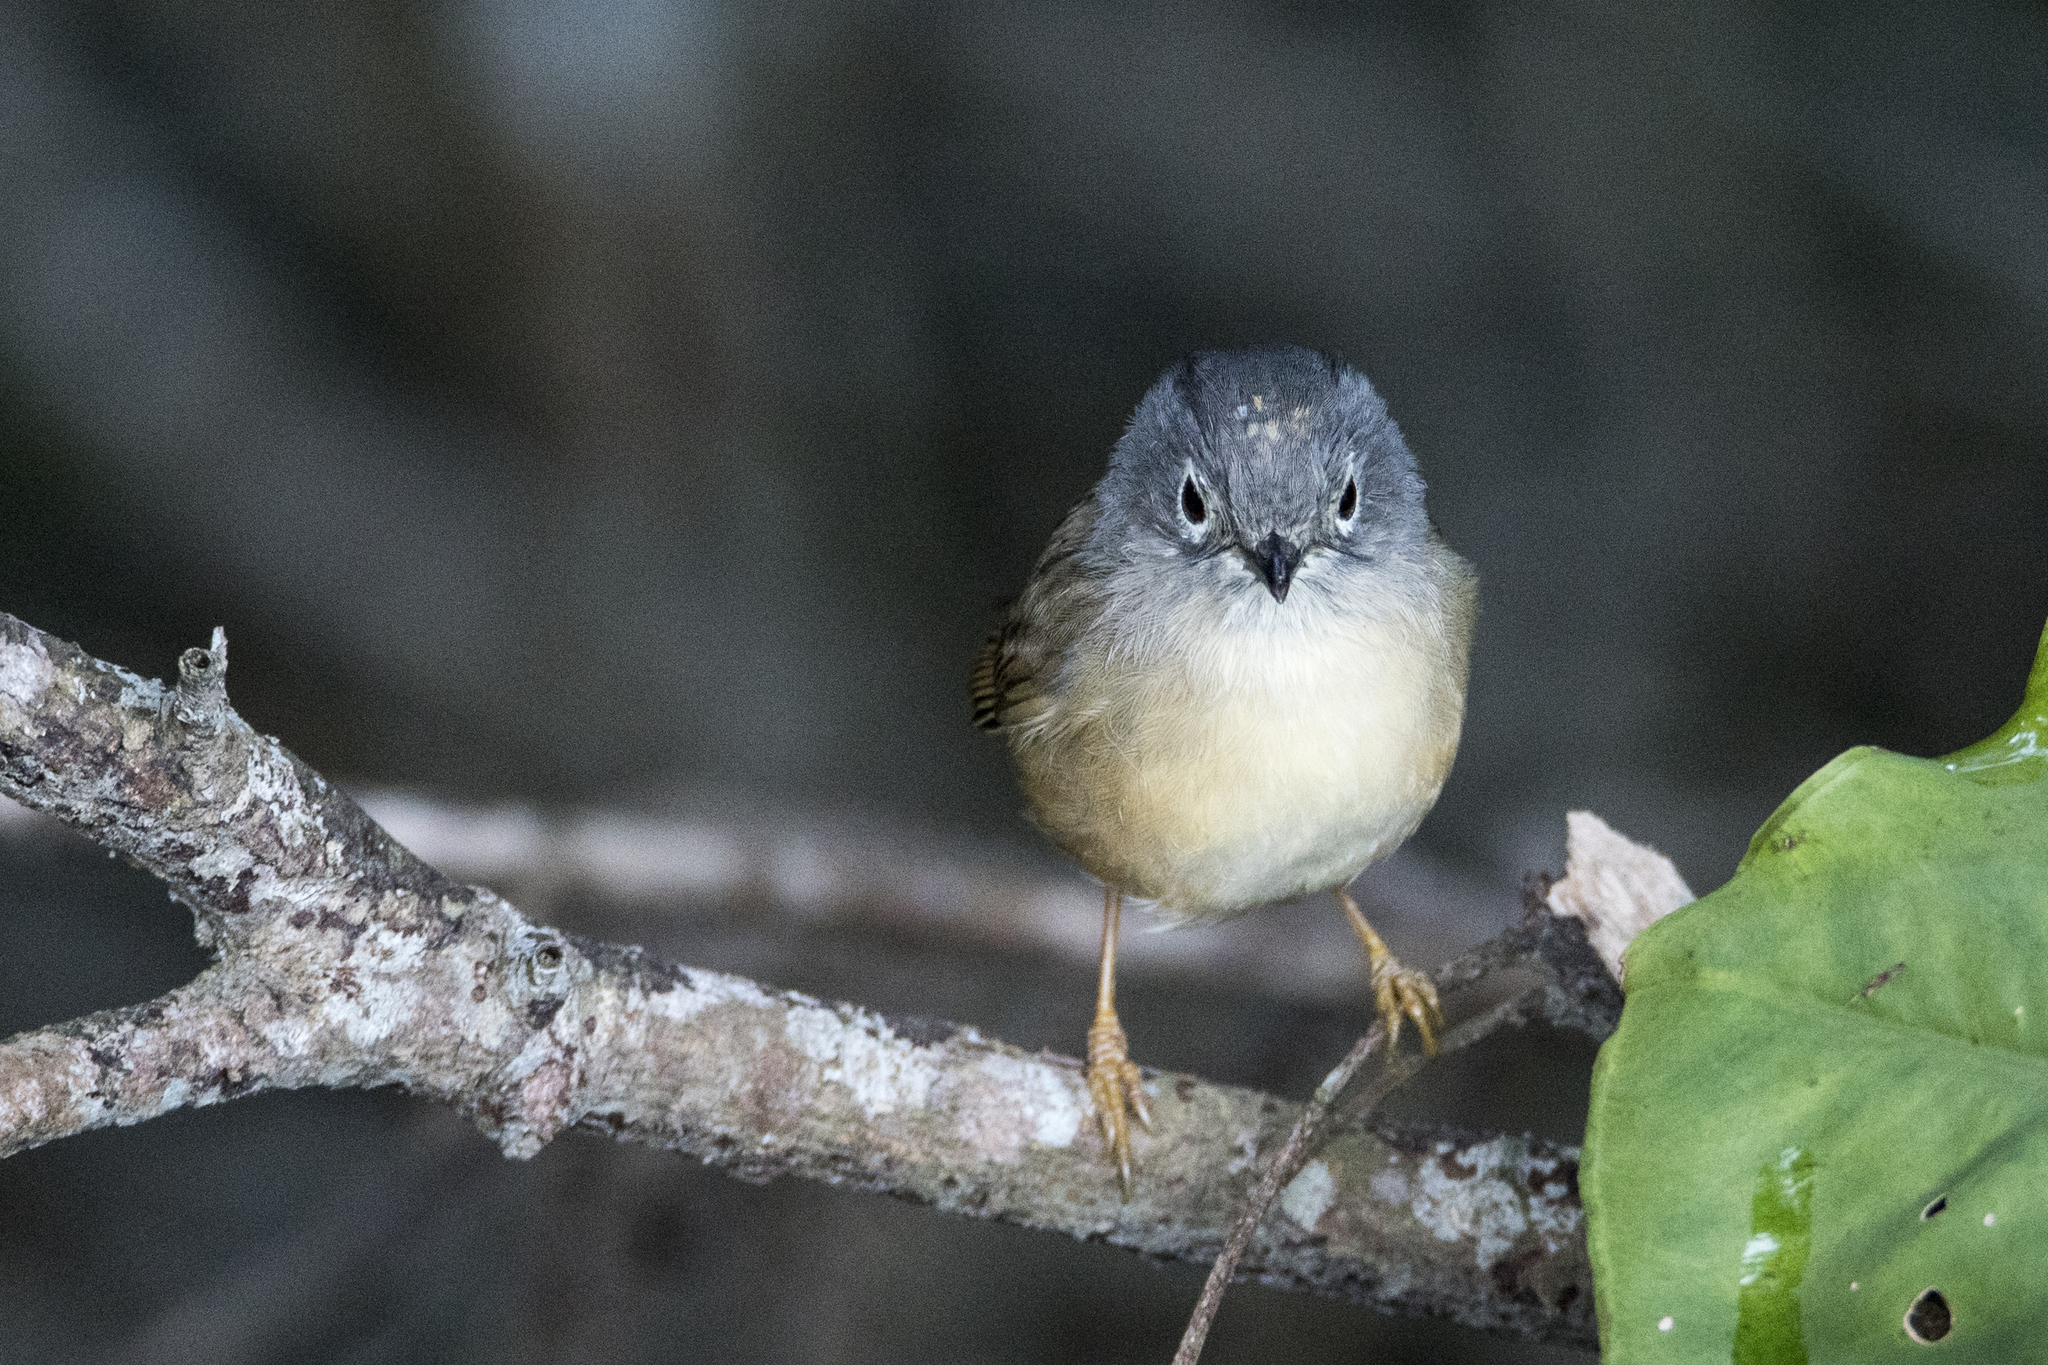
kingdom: Animalia
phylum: Chordata
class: Aves
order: Passeriformes
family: Pellorneidae
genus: Alcippe
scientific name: Alcippe morrisonia
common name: Grey-cheeked fulvetta
